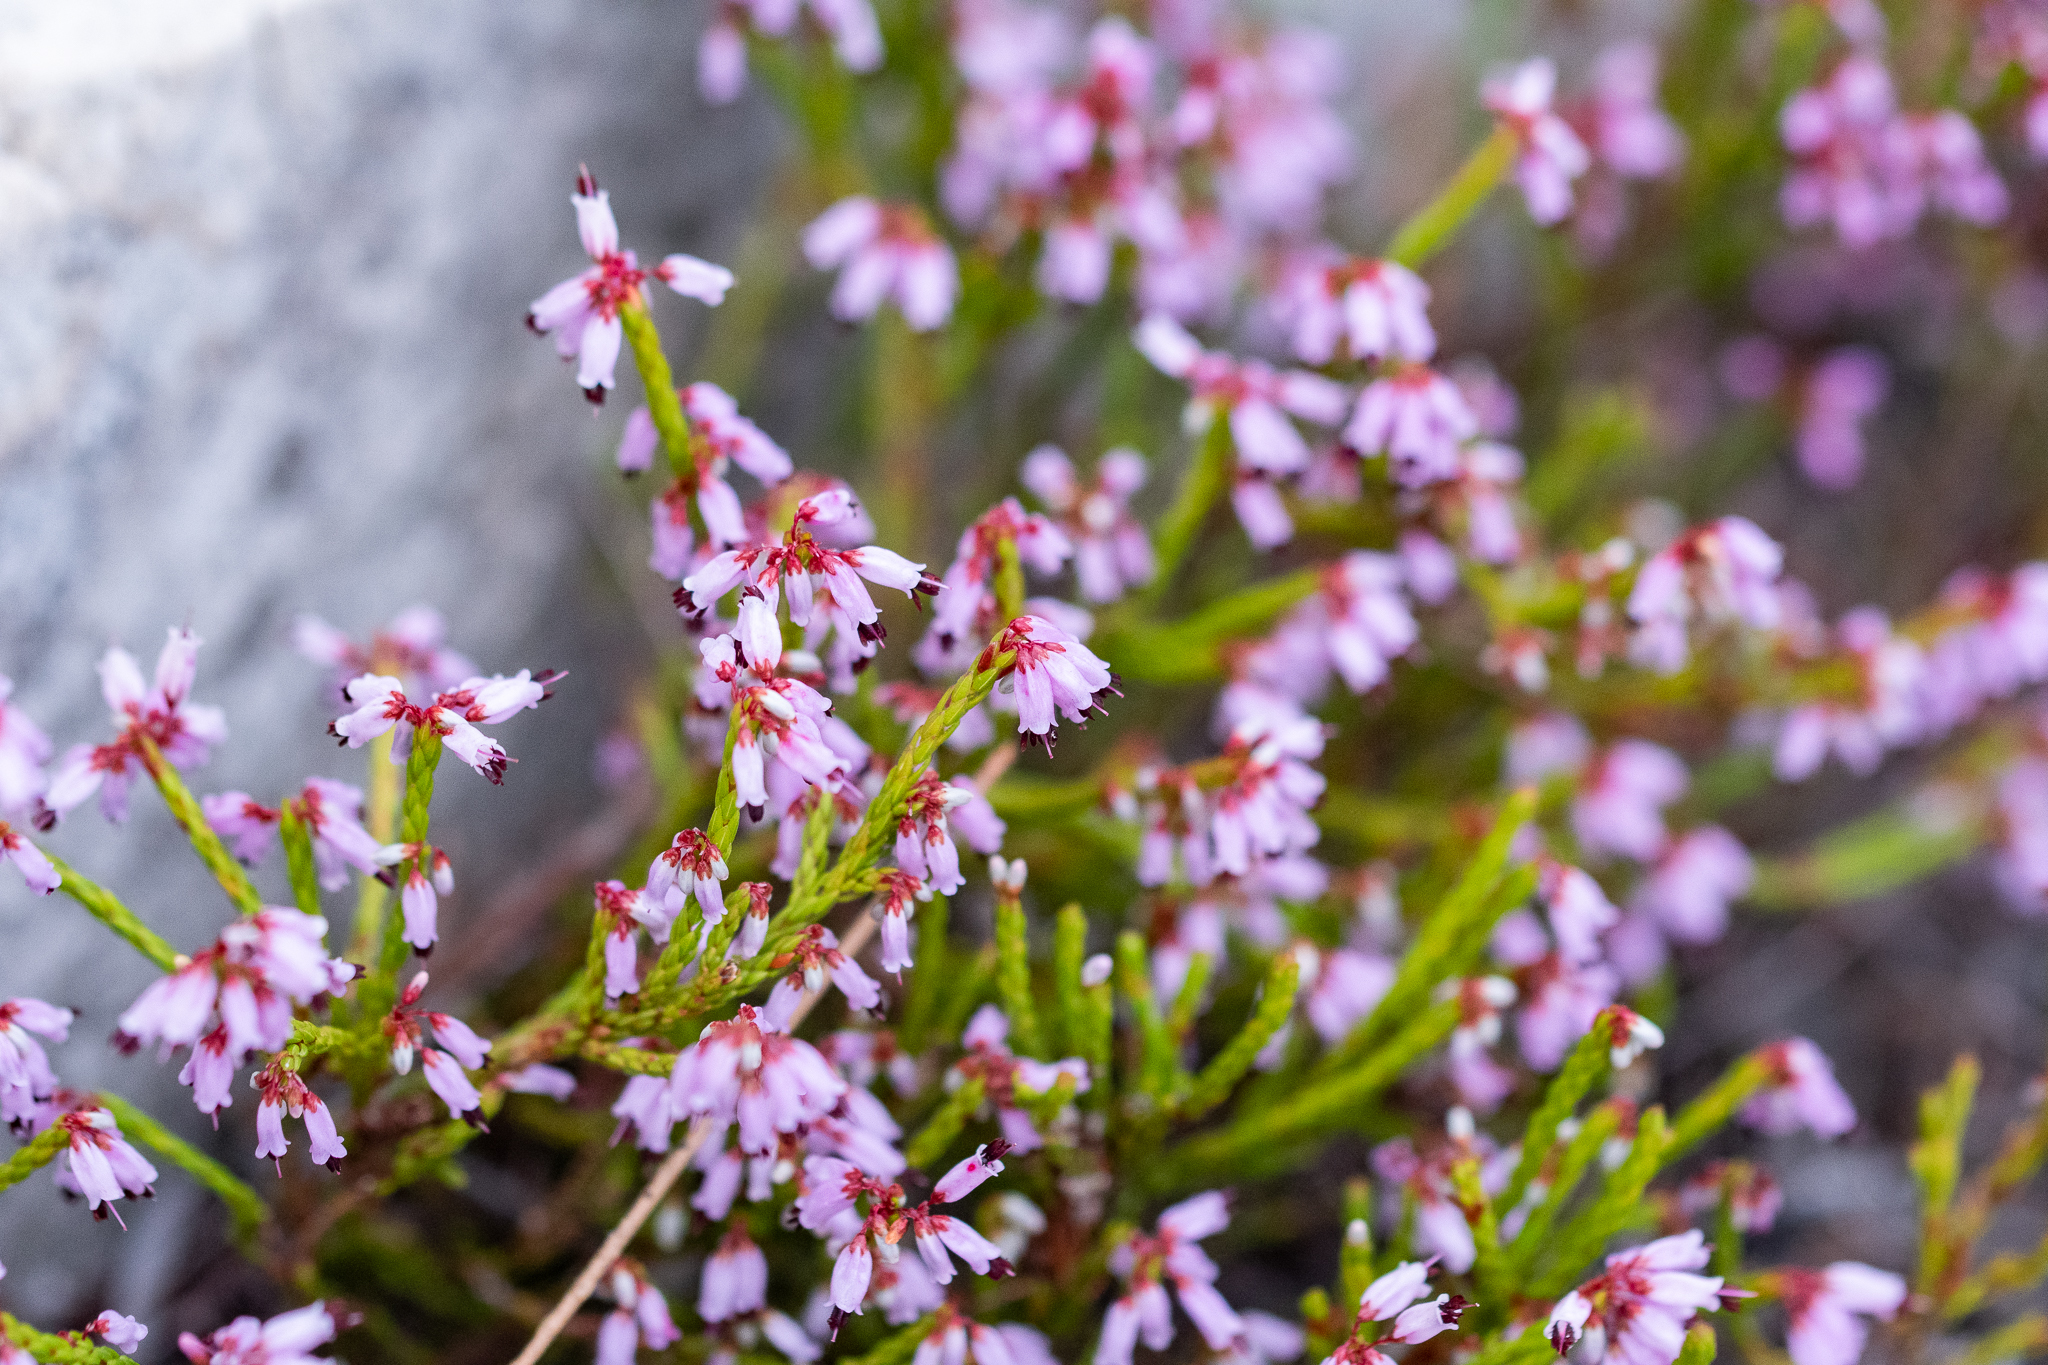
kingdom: Plantae
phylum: Tracheophyta
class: Magnoliopsida
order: Ericales
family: Ericaceae
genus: Erica
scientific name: Erica equisetifolia
